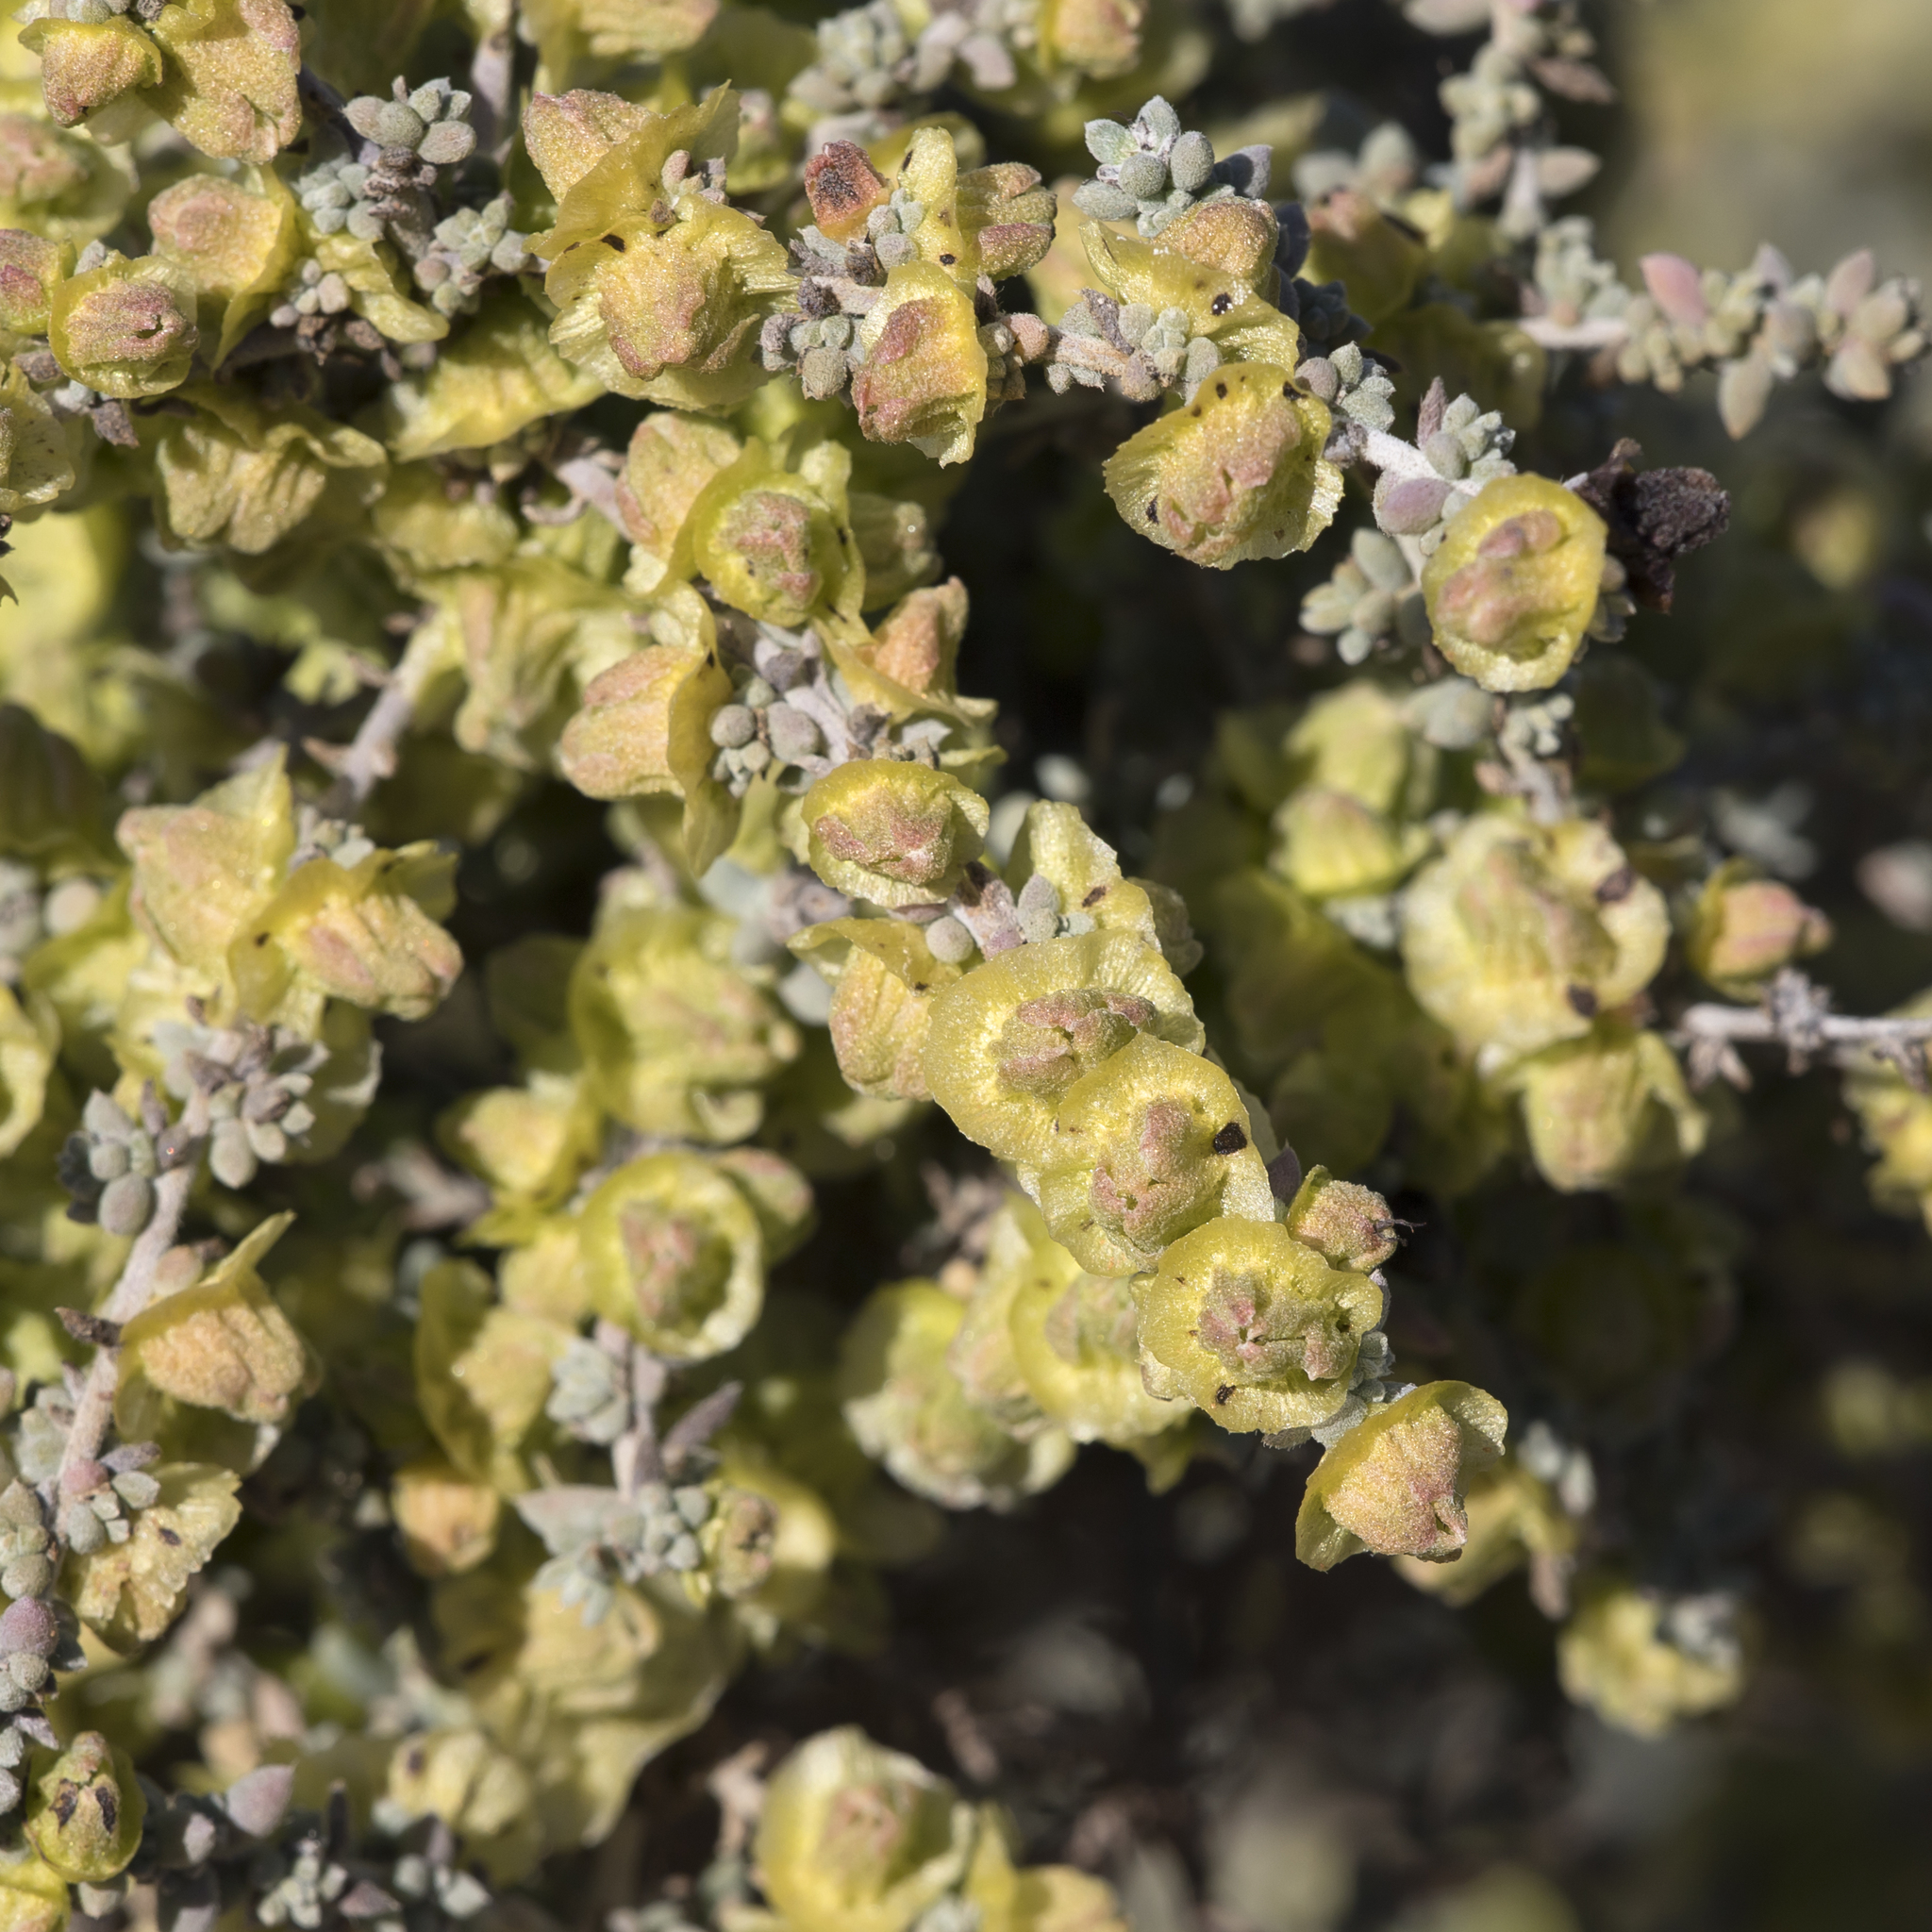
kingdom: Plantae
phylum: Tracheophyta
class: Magnoliopsida
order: Caryophyllales
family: Amaranthaceae
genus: Maireana
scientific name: Maireana pyramidata
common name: Sagobush
